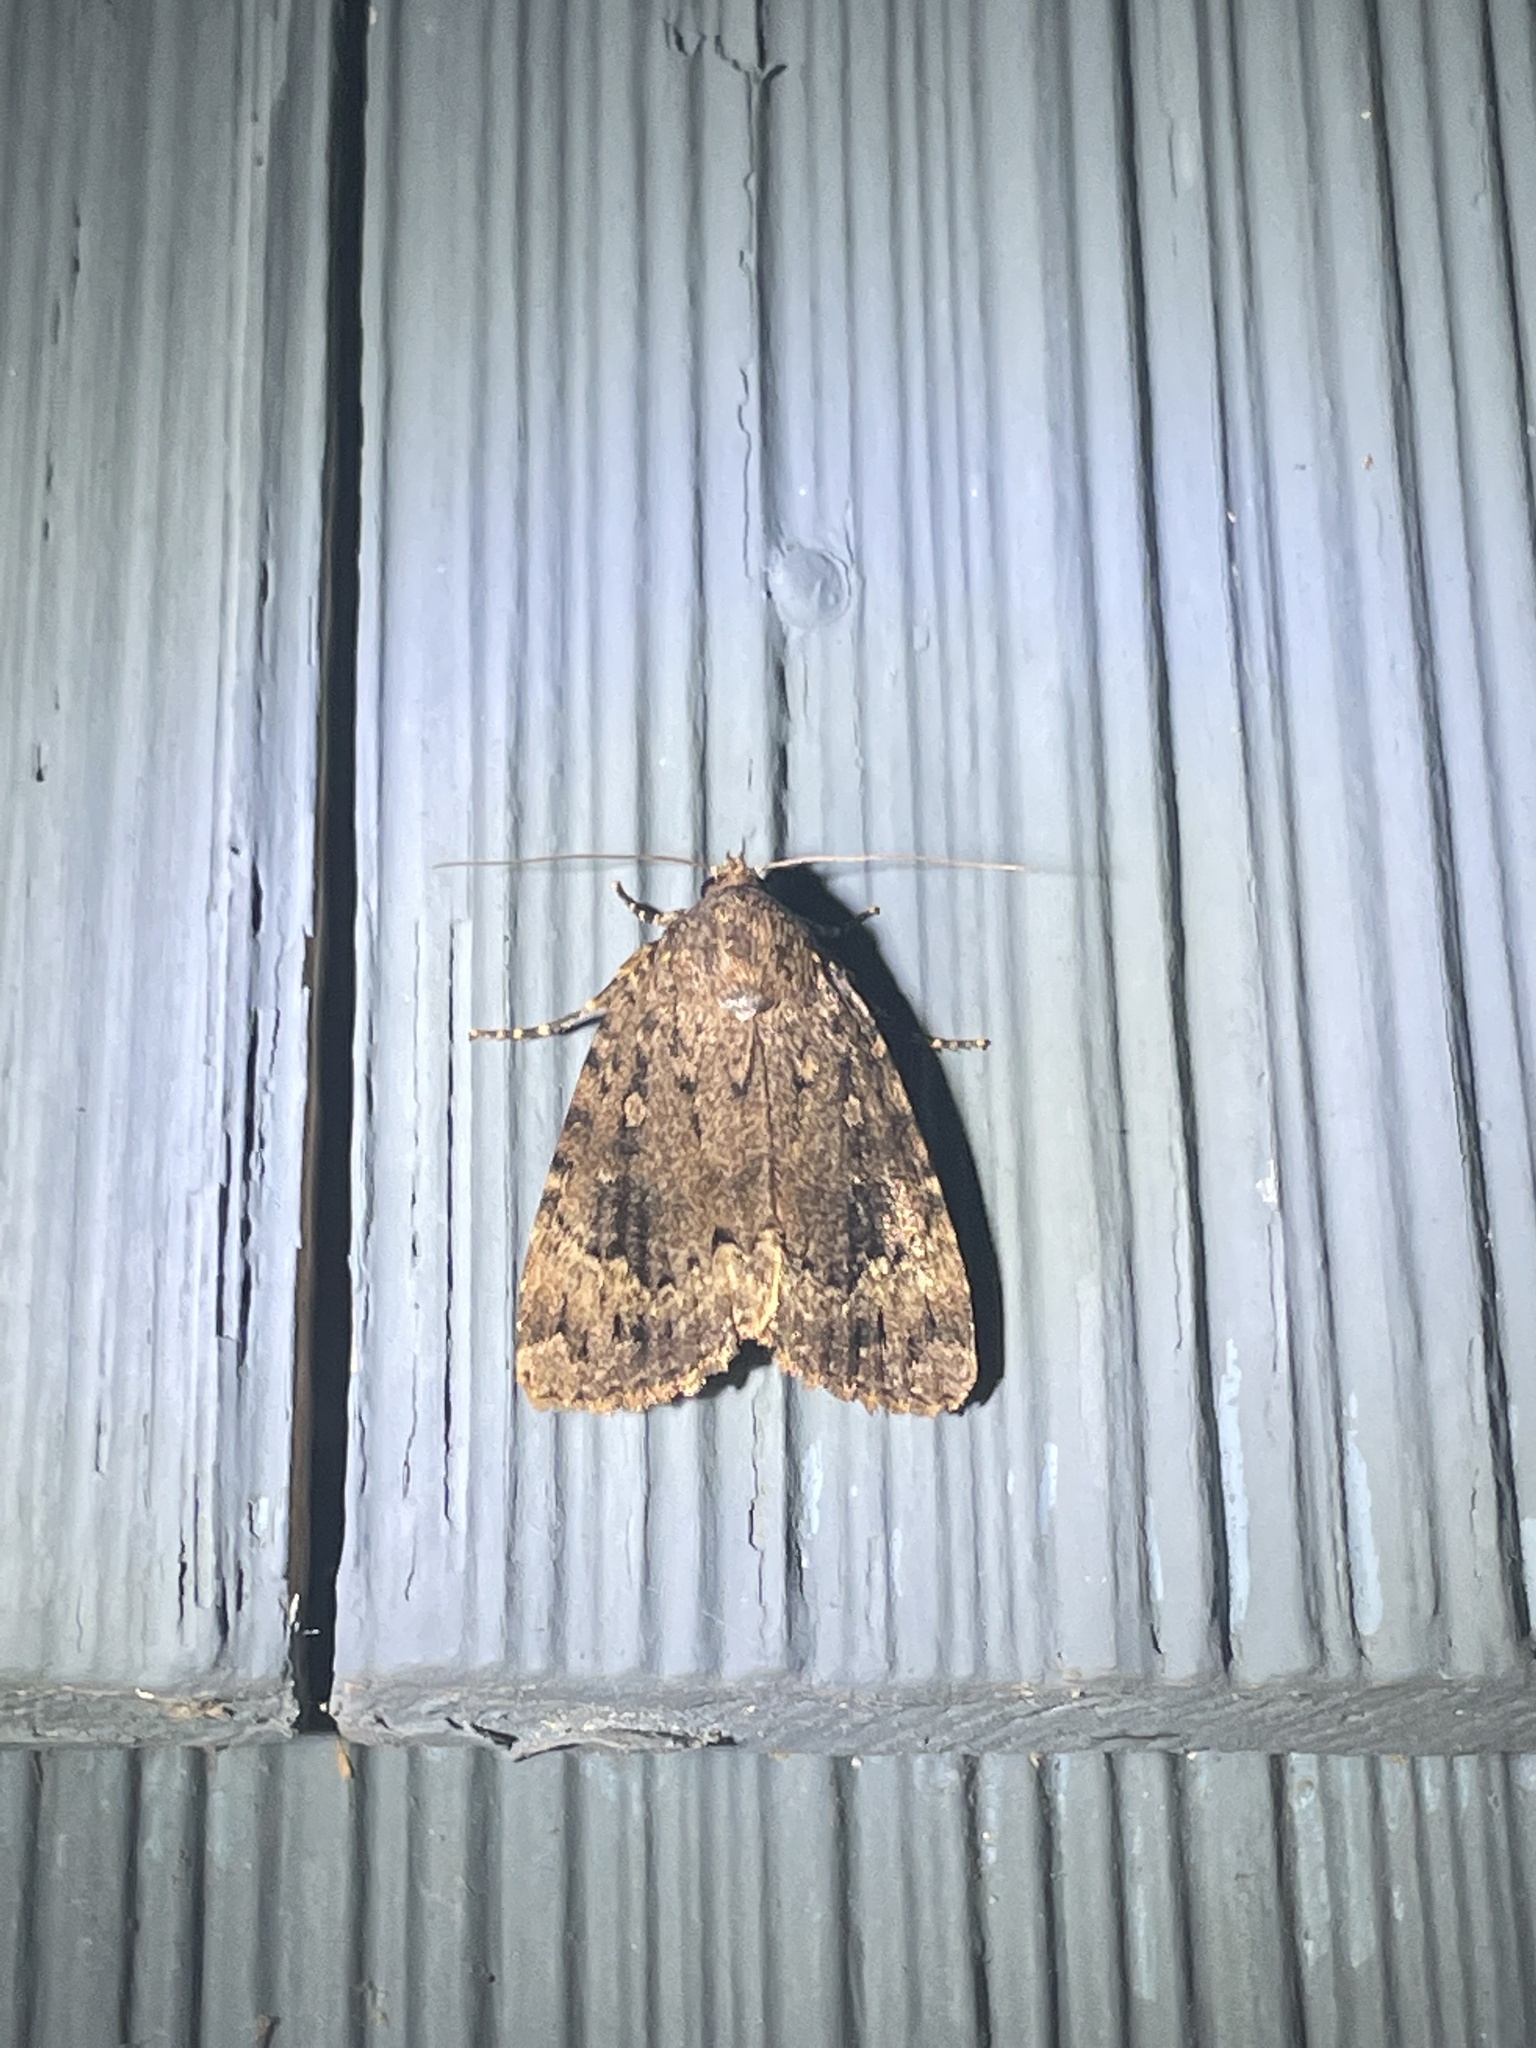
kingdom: Animalia
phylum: Arthropoda
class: Insecta
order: Lepidoptera
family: Noctuidae
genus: Amphipyra
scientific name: Amphipyra pyramidoides
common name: American copper underwing
